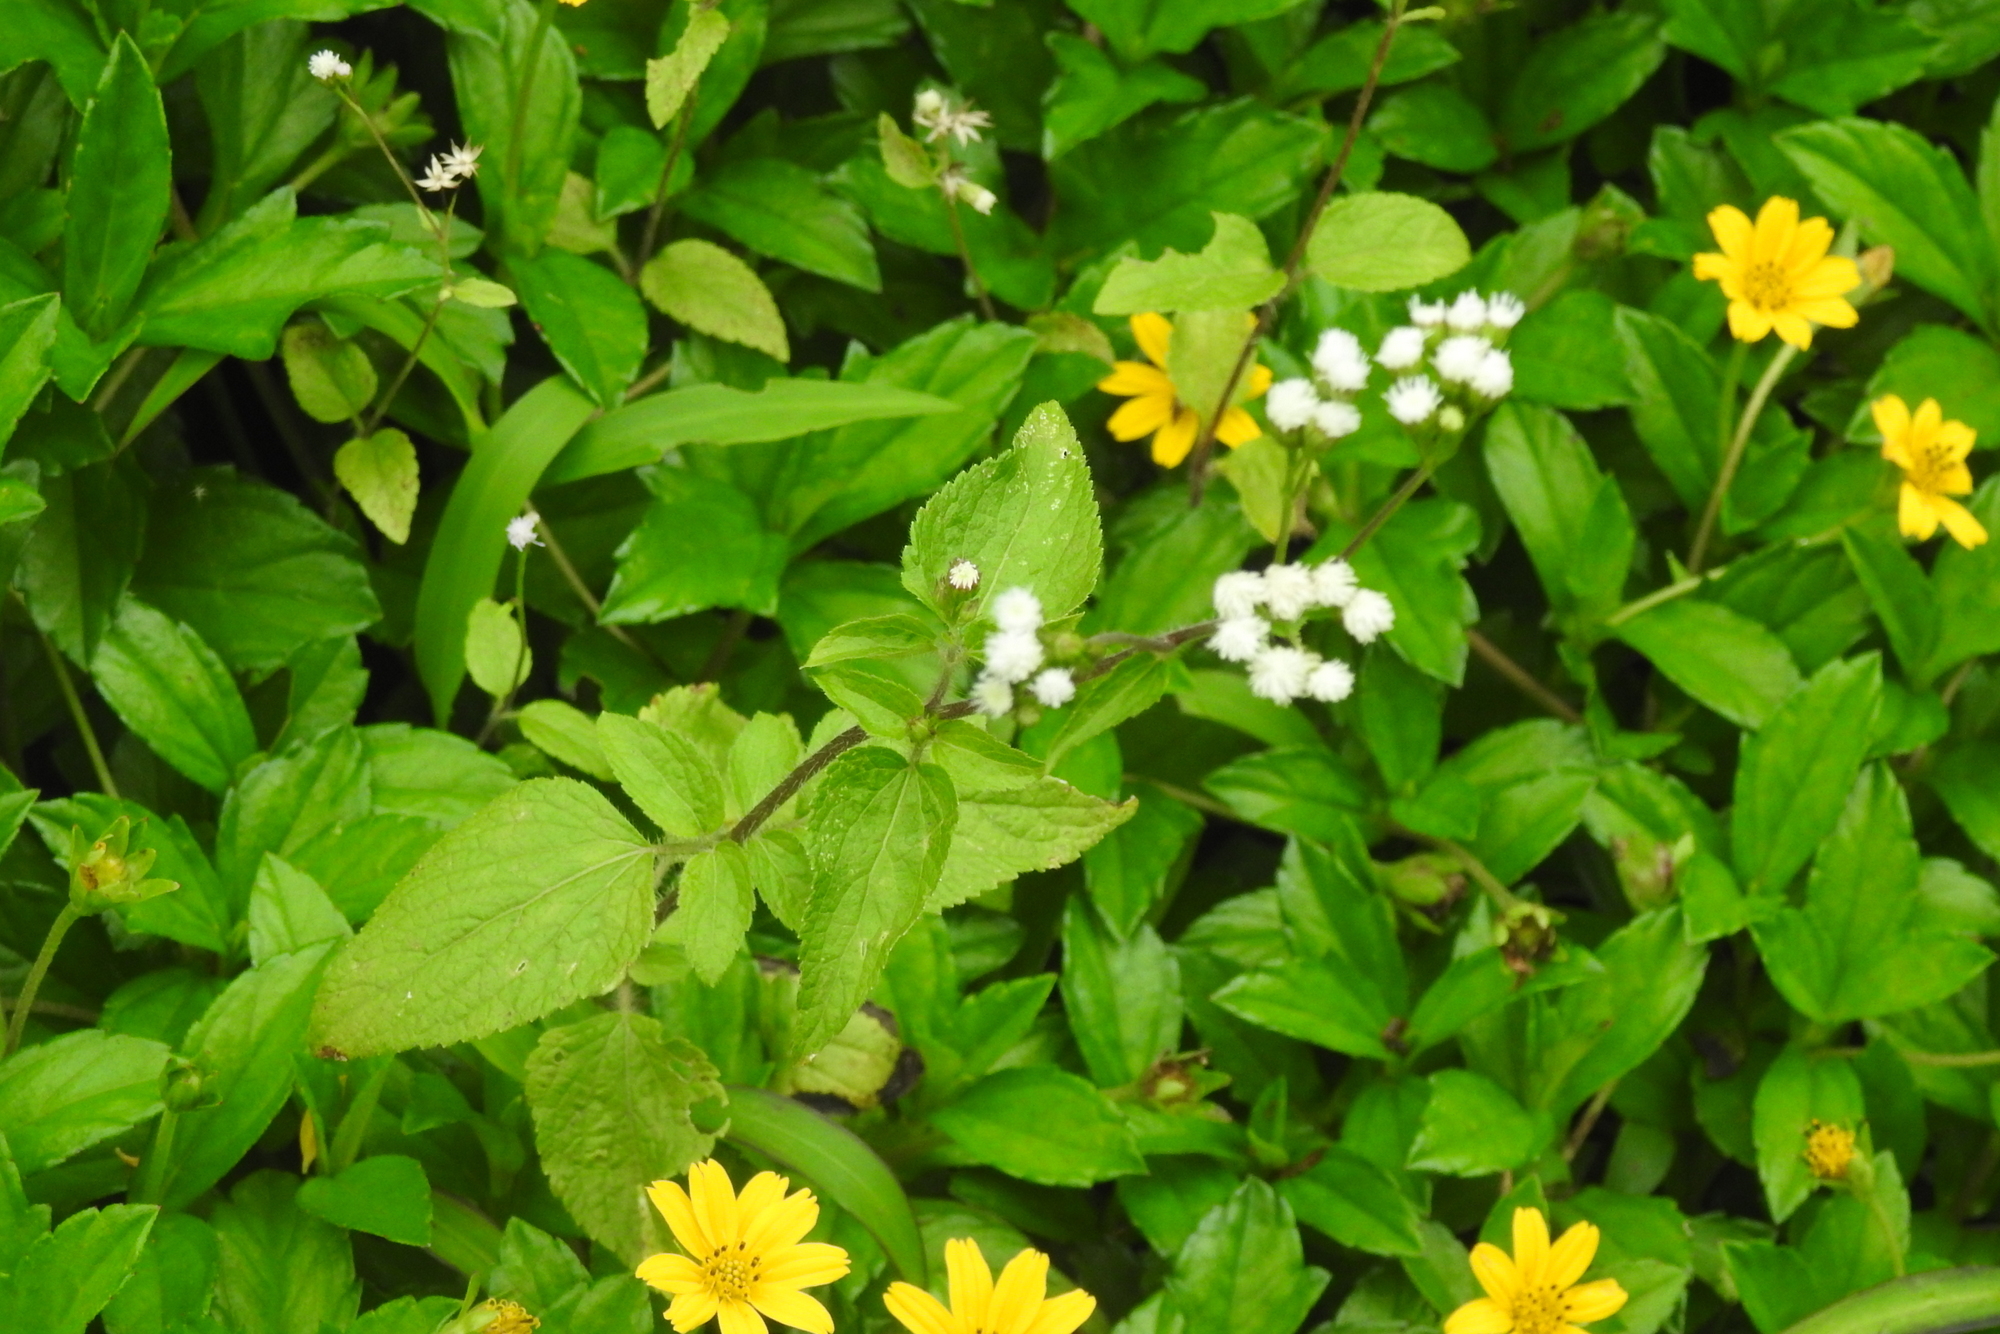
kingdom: Plantae
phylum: Tracheophyta
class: Magnoliopsida
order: Asterales
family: Asteraceae
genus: Ageratum
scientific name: Ageratum conyzoides
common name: Tropical whiteweed
